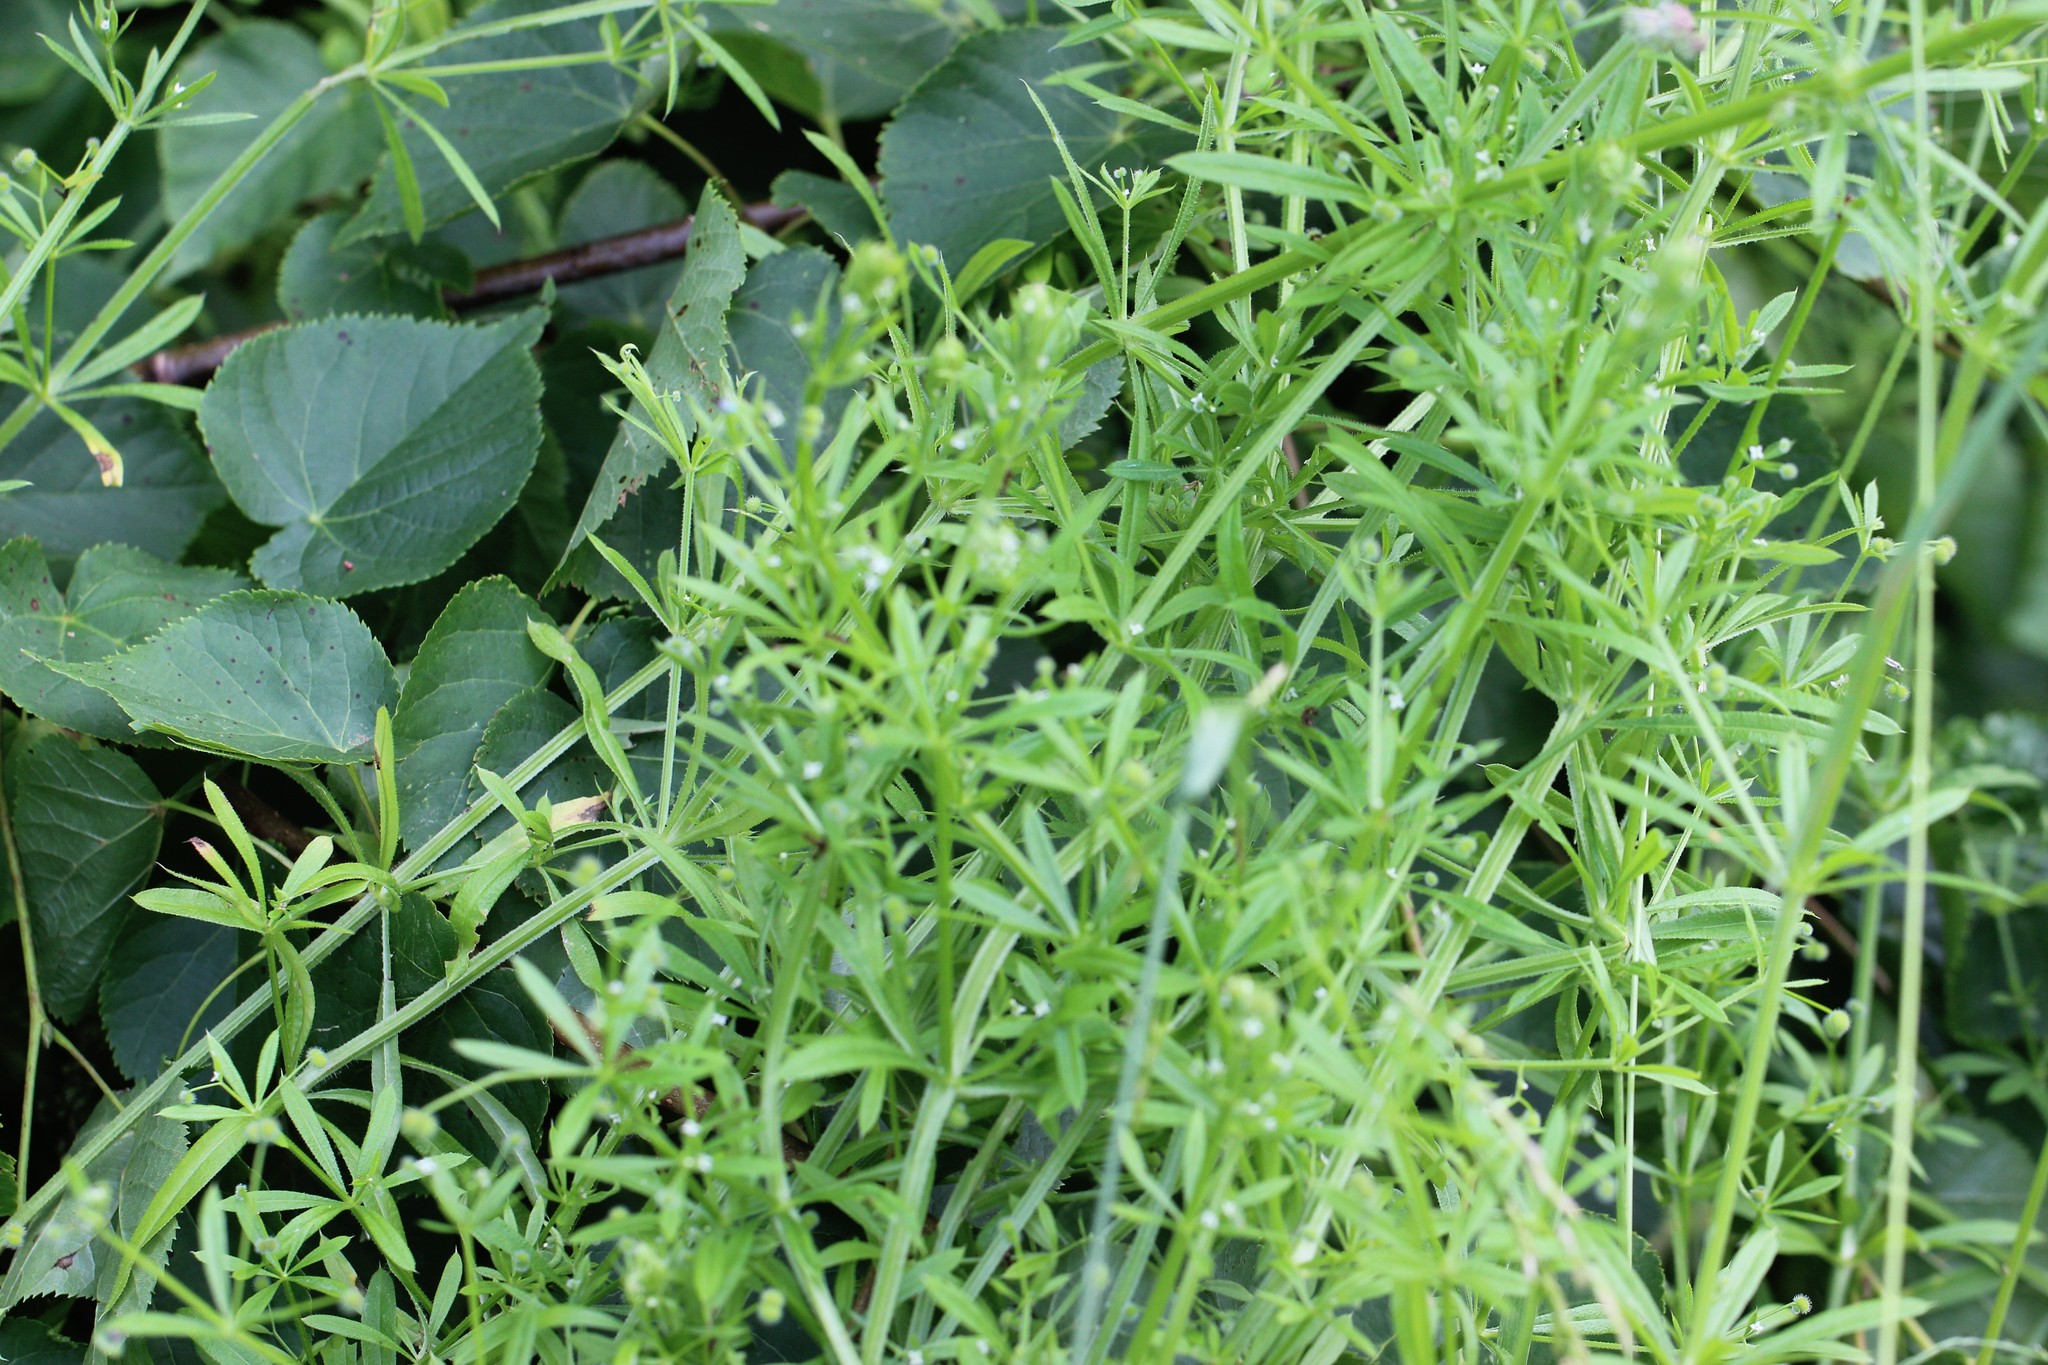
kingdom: Plantae
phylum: Tracheophyta
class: Magnoliopsida
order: Gentianales
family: Rubiaceae
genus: Galium
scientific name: Galium aparine
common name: Cleavers
